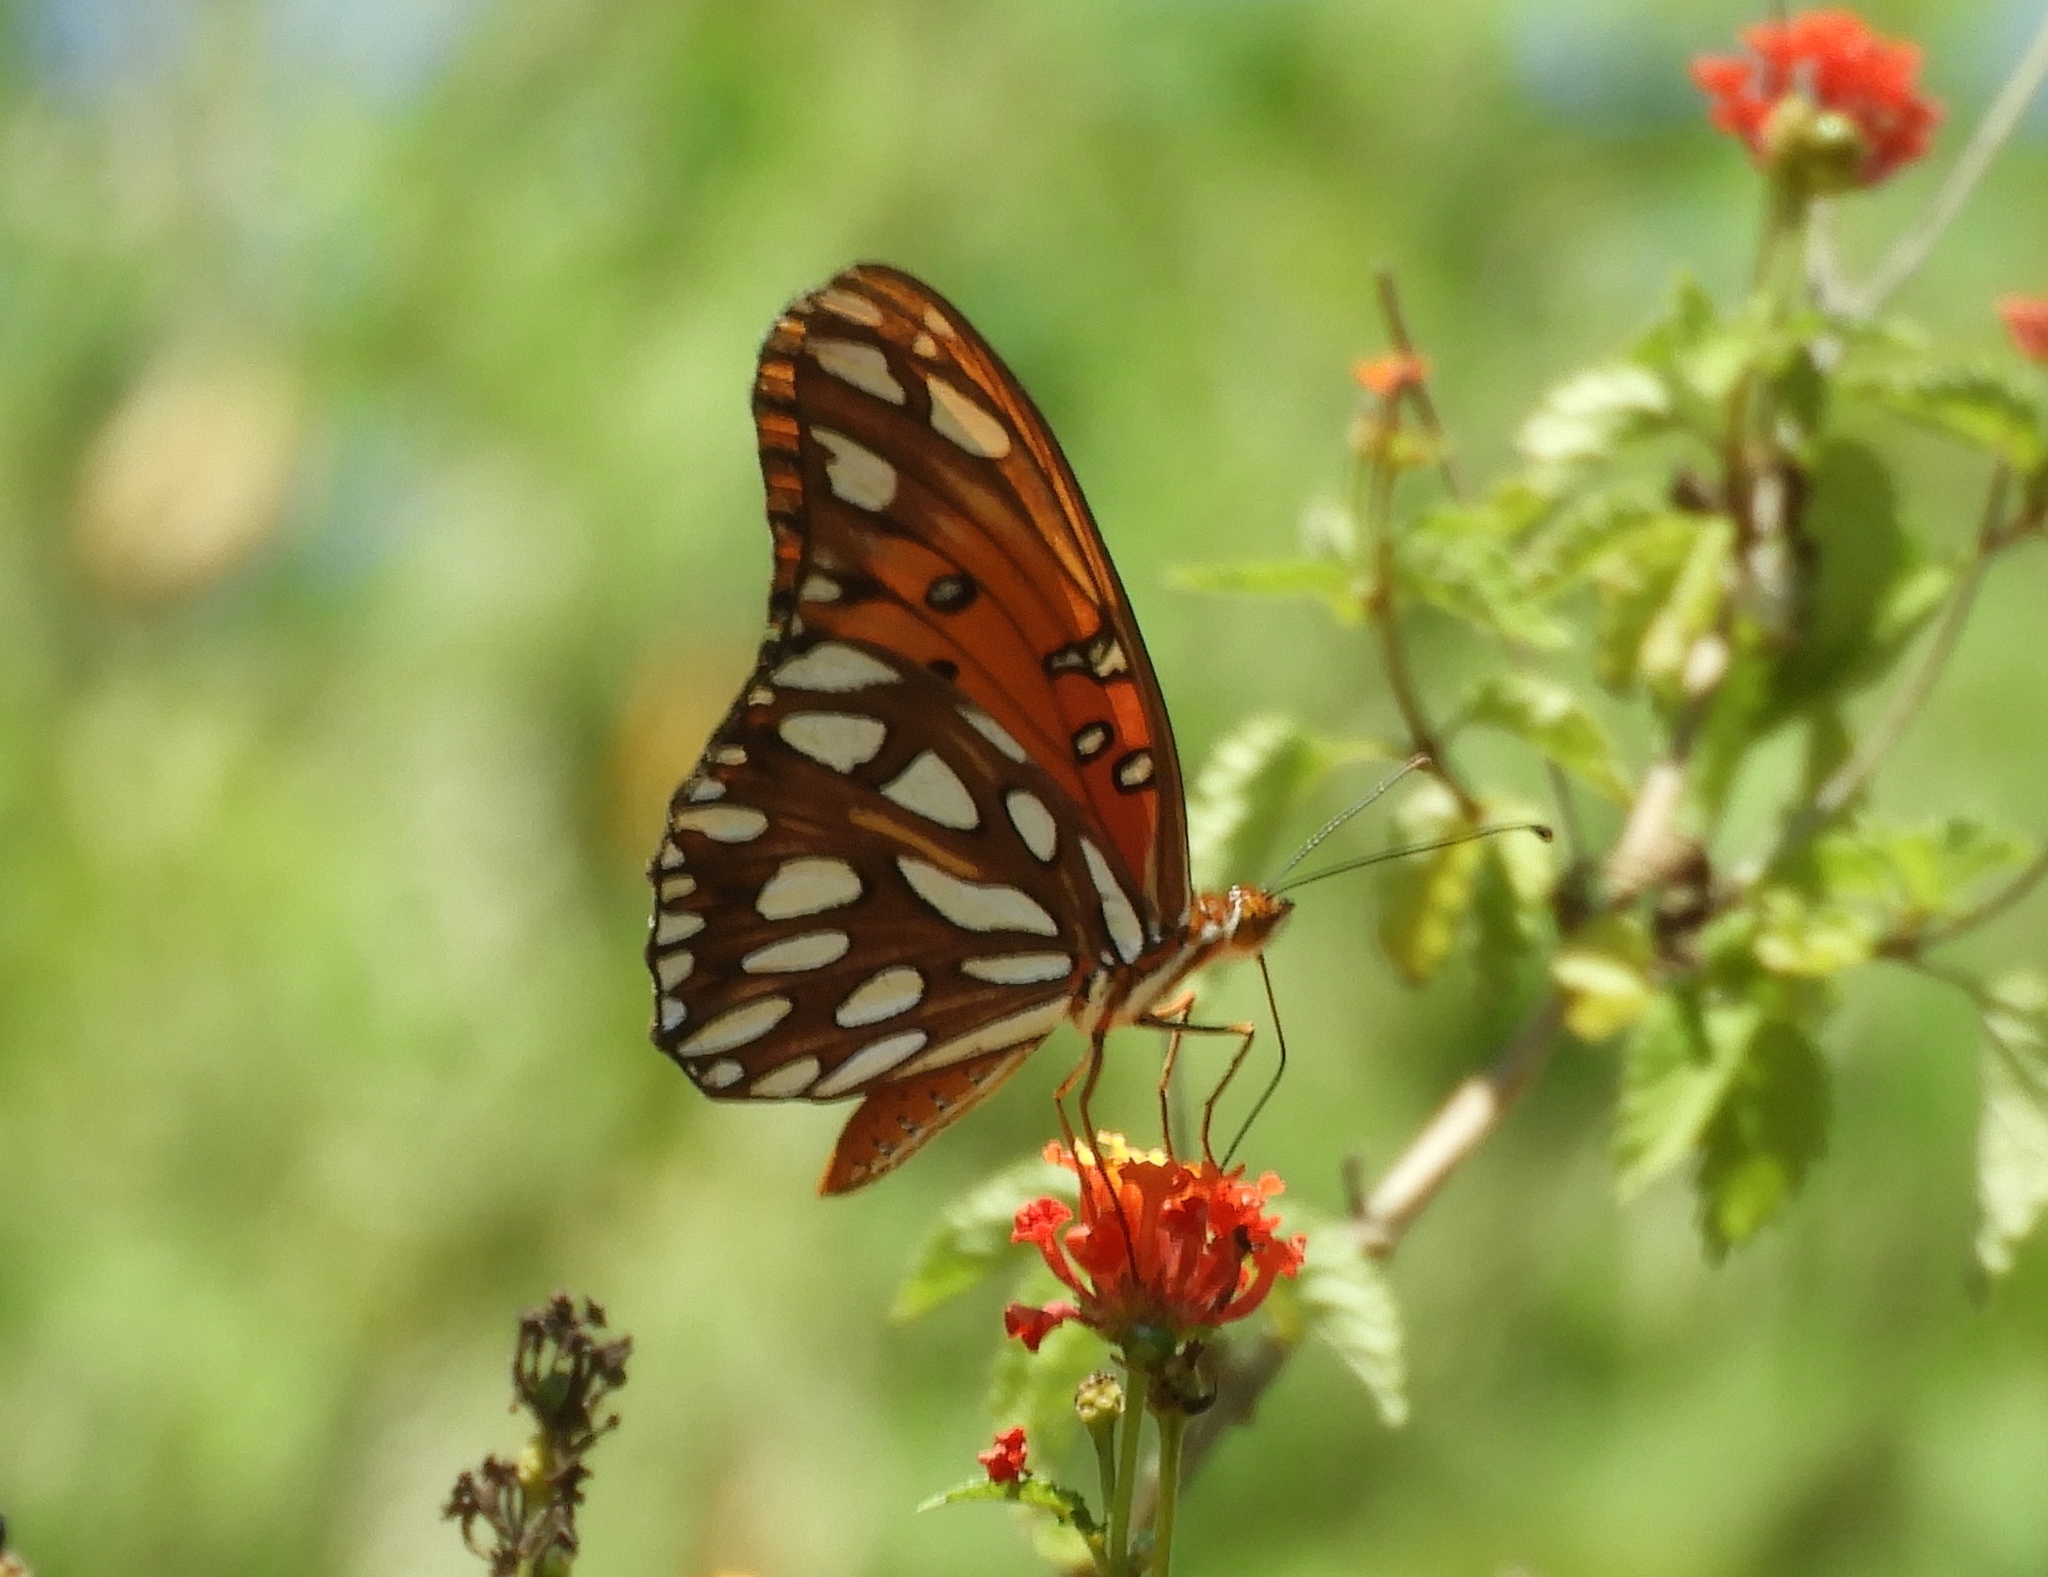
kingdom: Animalia
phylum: Arthropoda
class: Insecta
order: Lepidoptera
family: Nymphalidae
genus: Dione
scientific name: Dione vanillae
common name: Gulf fritillary
